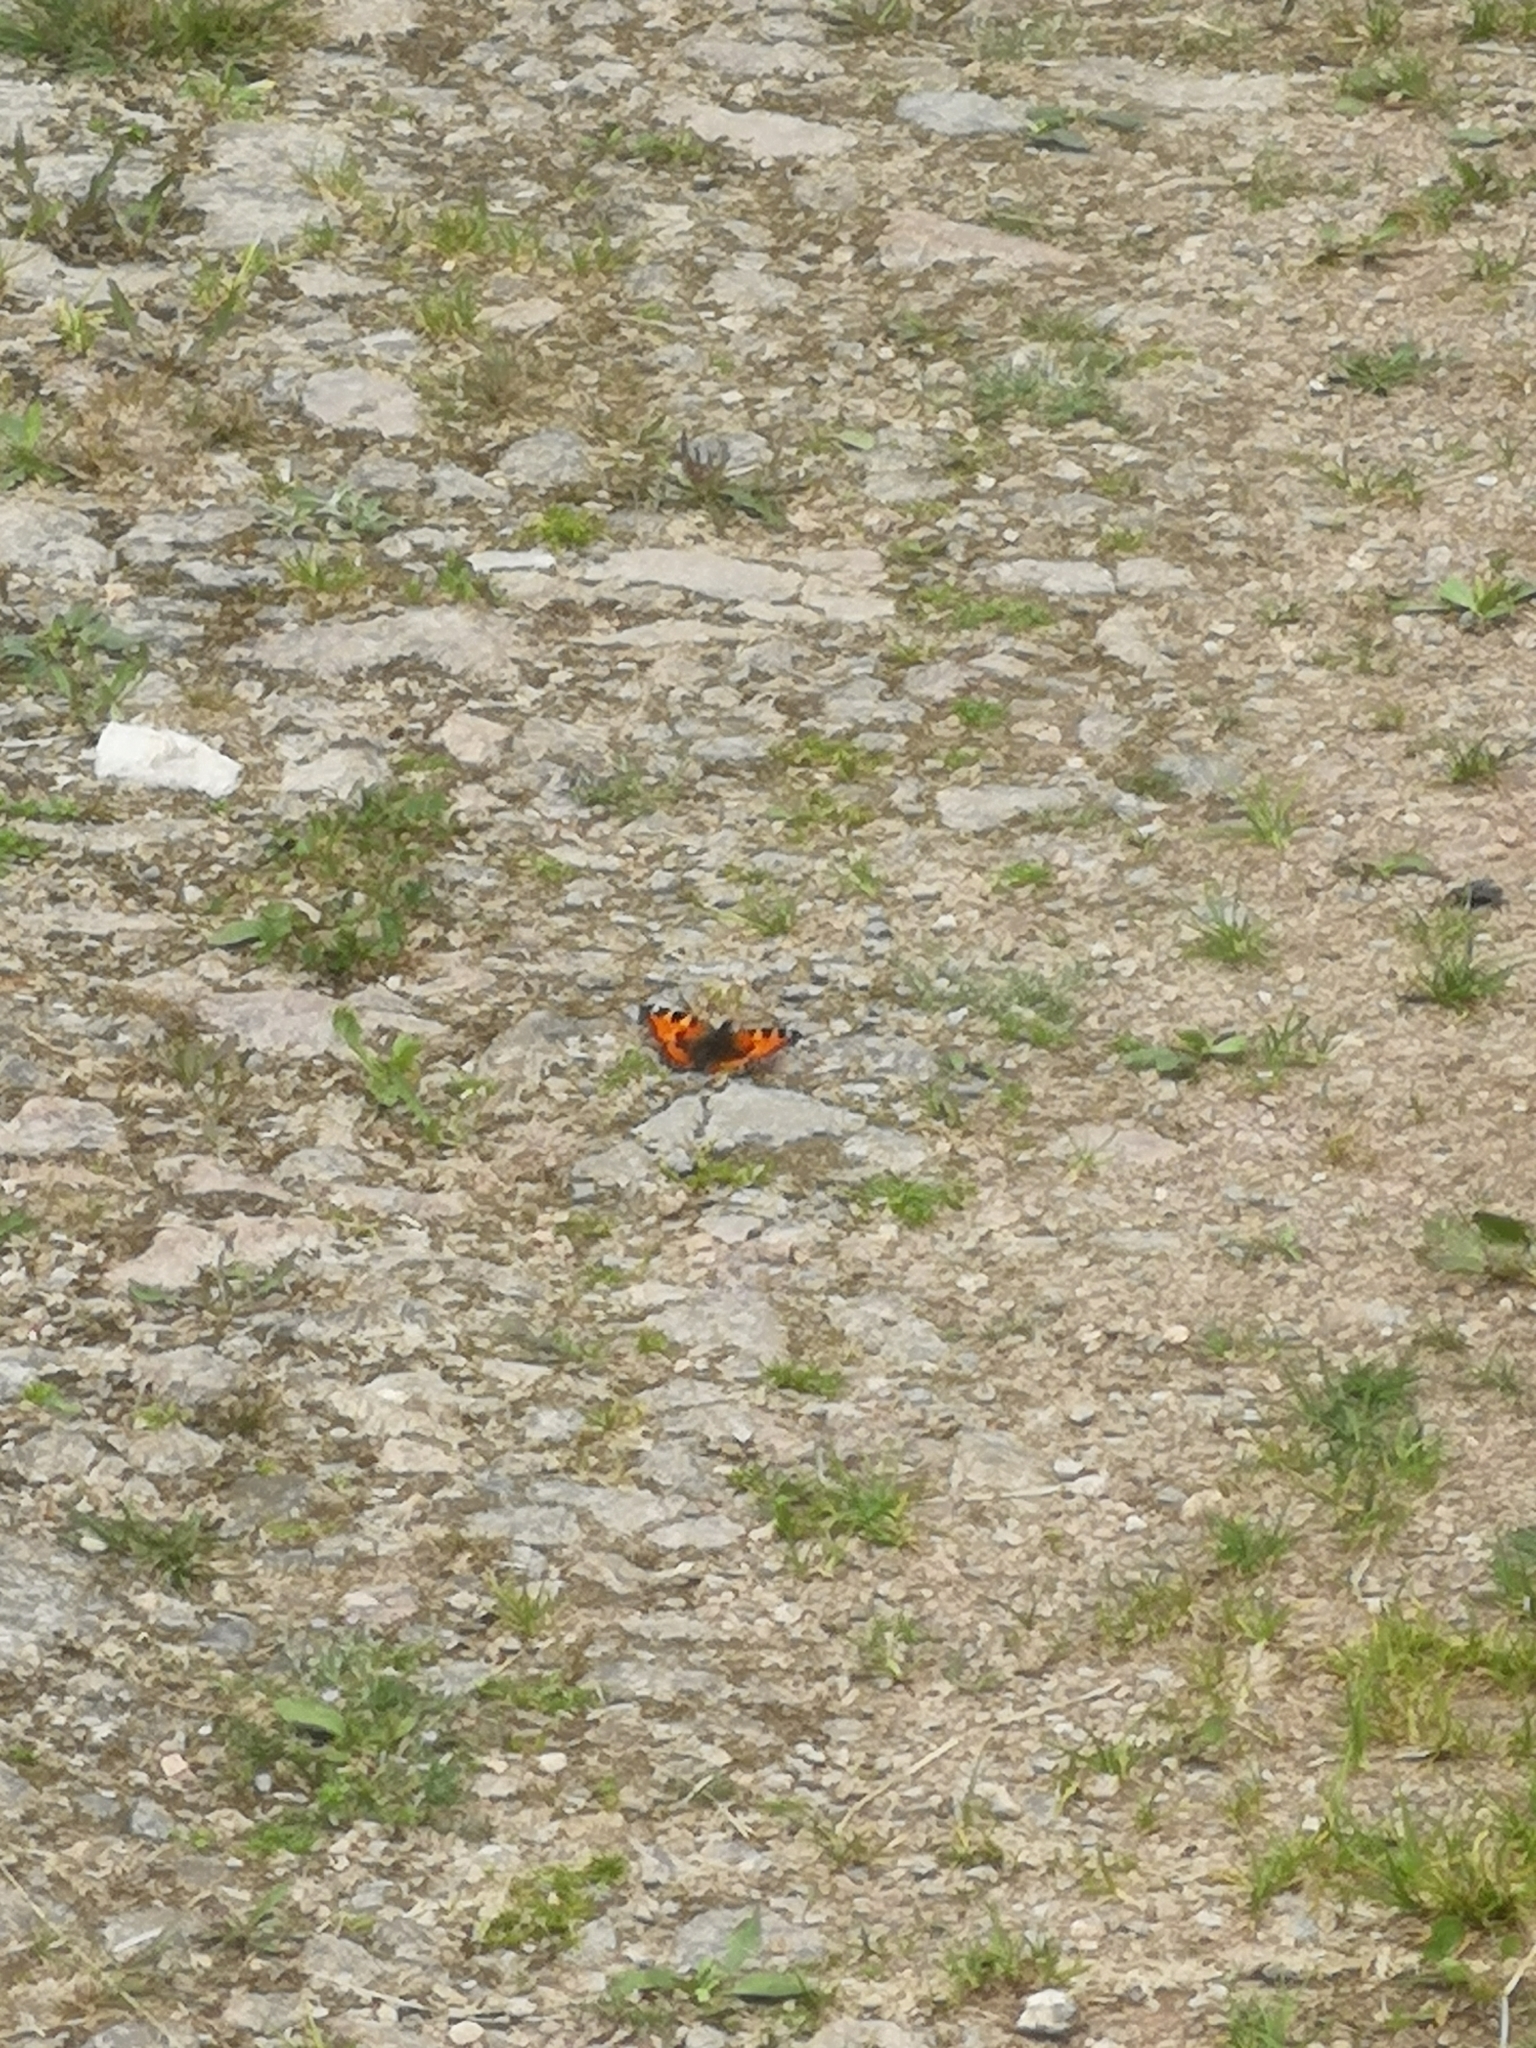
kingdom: Animalia
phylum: Arthropoda
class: Insecta
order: Lepidoptera
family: Nymphalidae
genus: Aglais
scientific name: Aglais urticae
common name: Small tortoiseshell
